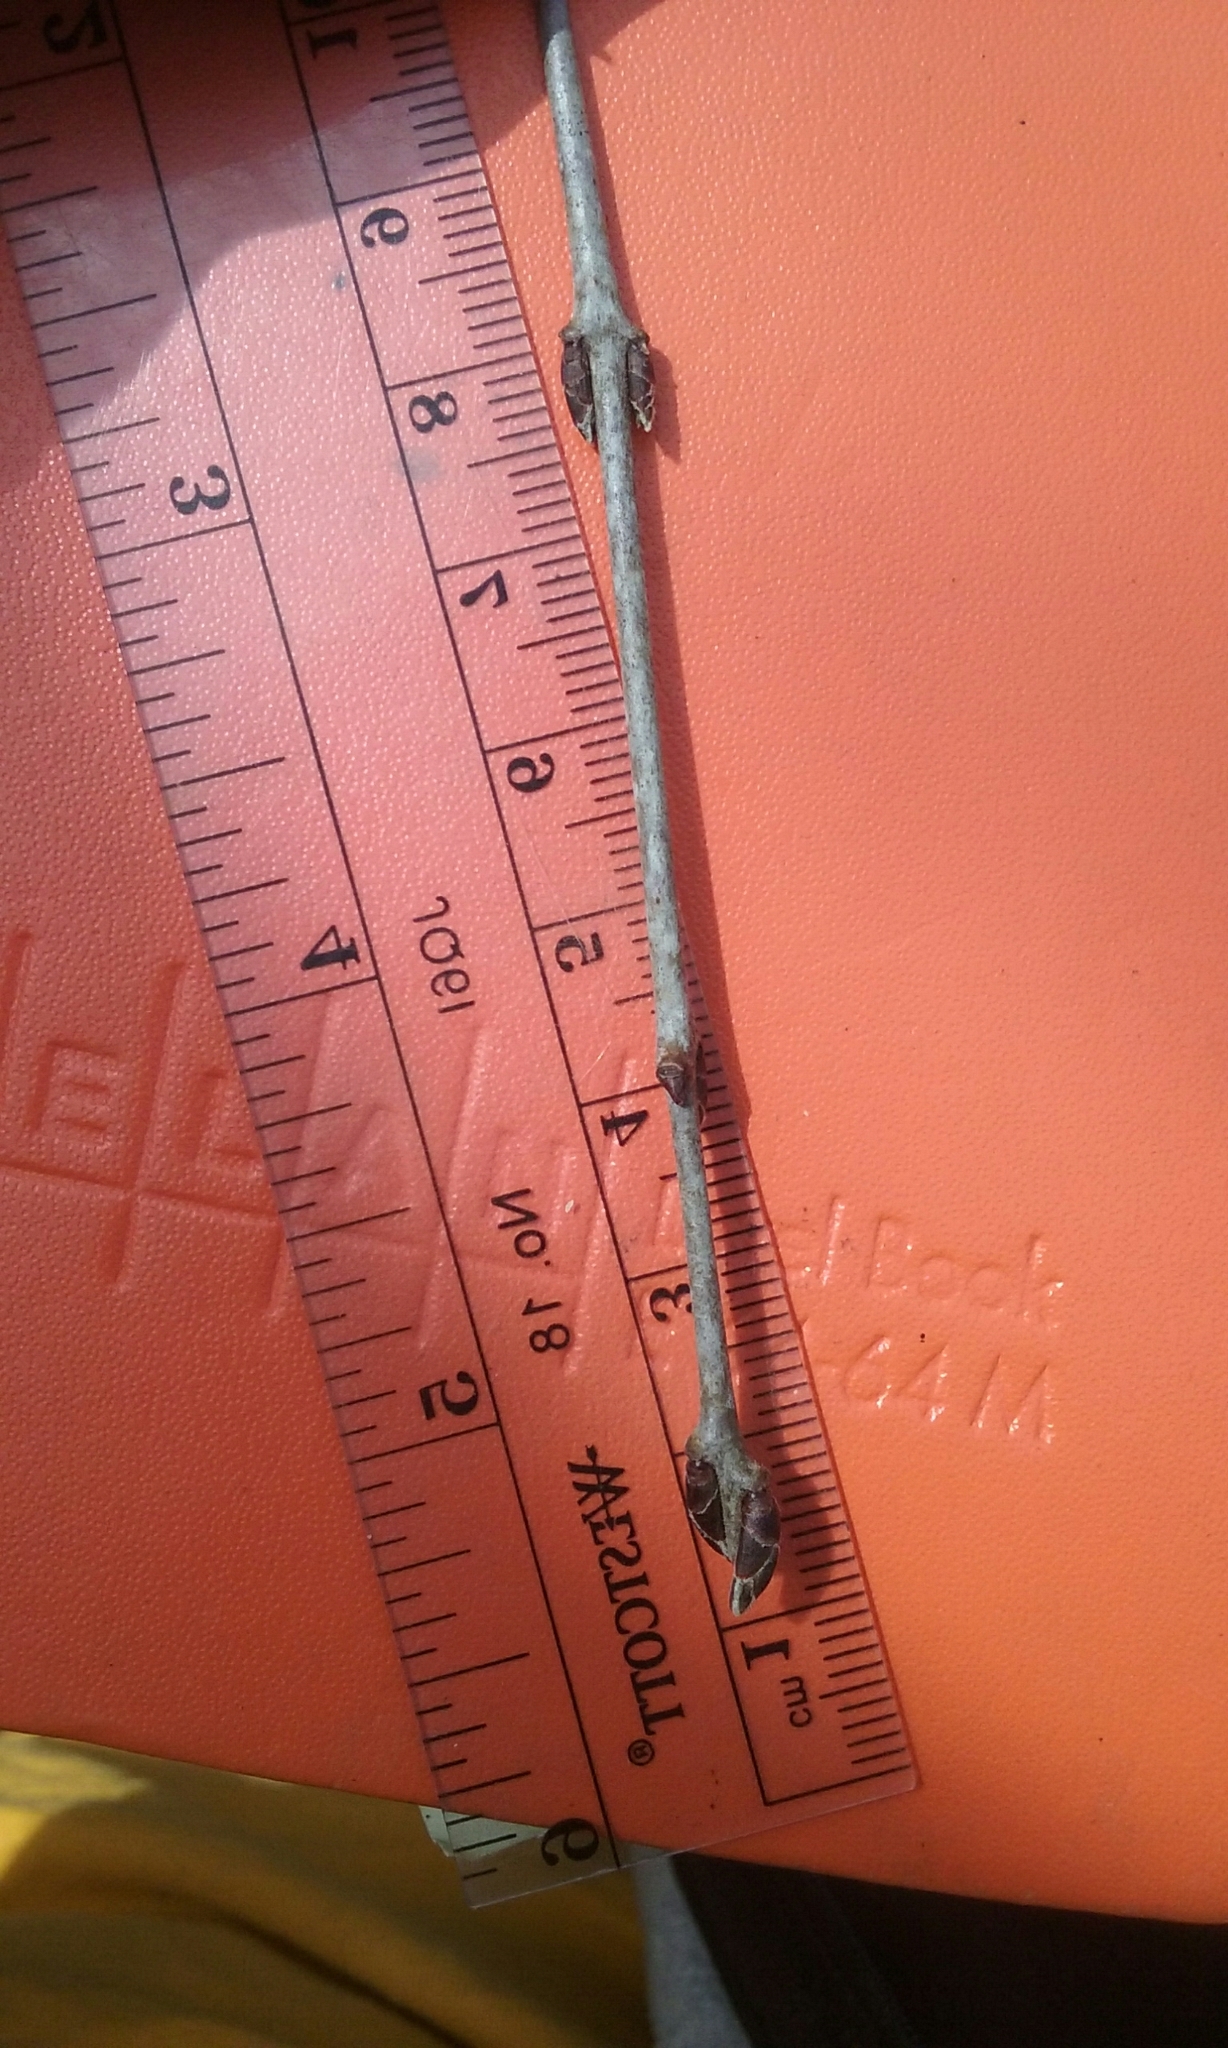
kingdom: Plantae
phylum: Tracheophyta
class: Magnoliopsida
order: Rosales
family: Rhamnaceae
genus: Rhamnus
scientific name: Rhamnus cathartica
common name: Common buckthorn
